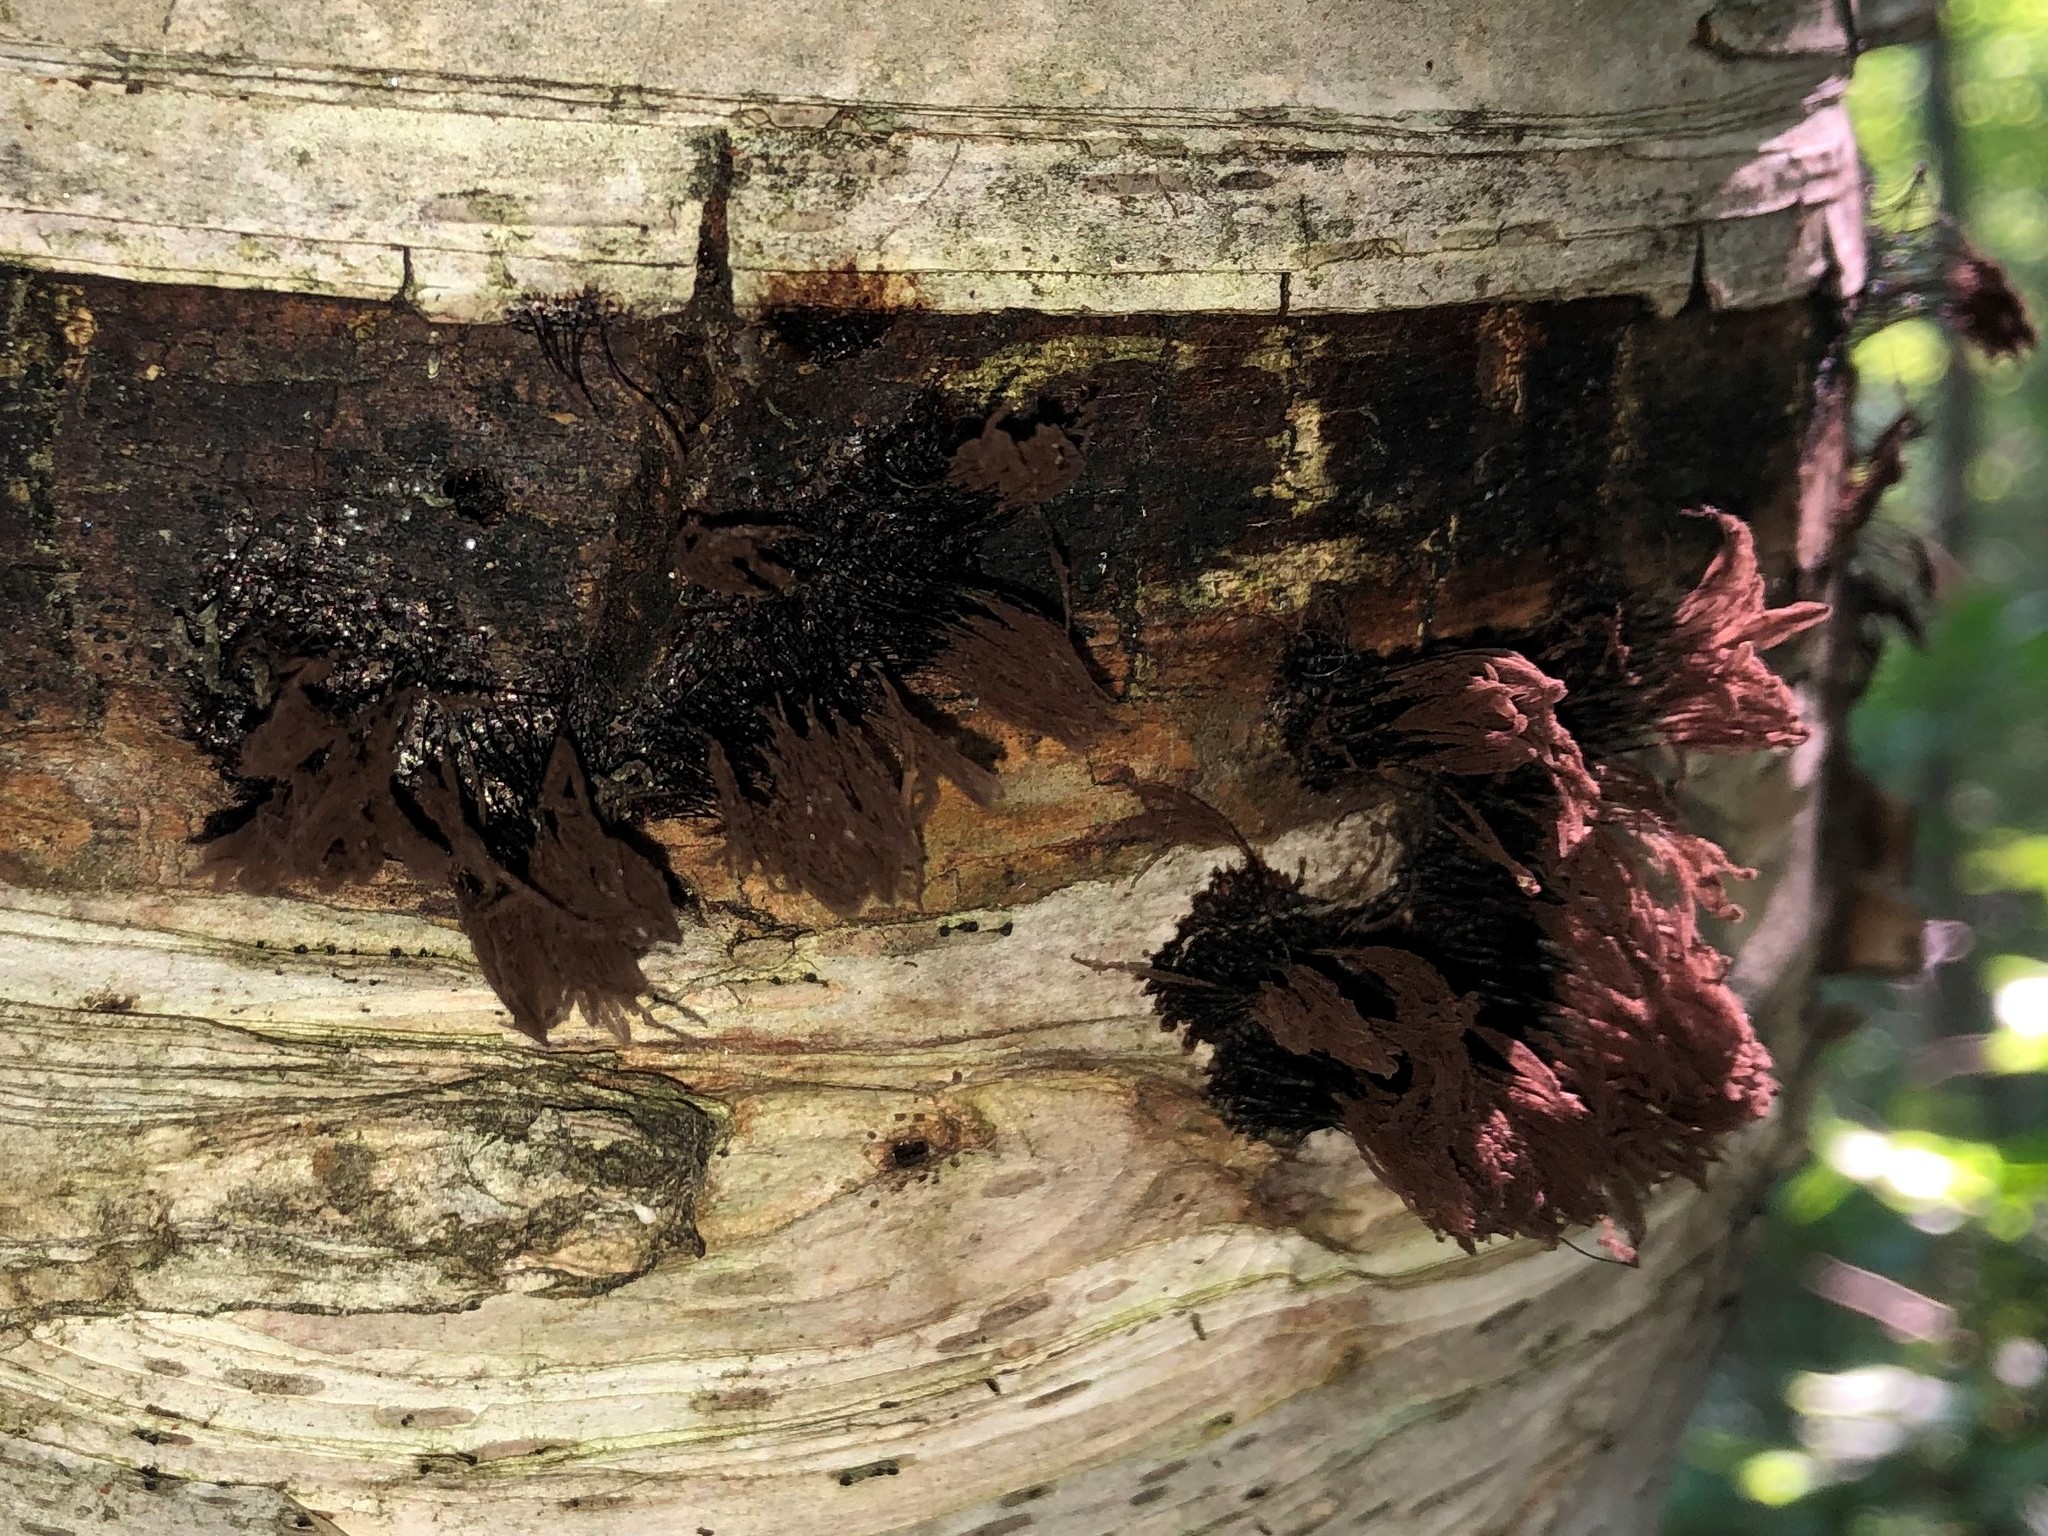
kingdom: Protozoa
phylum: Mycetozoa
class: Myxomycetes
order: Stemonitidales
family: Stemonitidaceae
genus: Stemonitis
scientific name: Stemonitis splendens
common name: Chocolate tube slime
